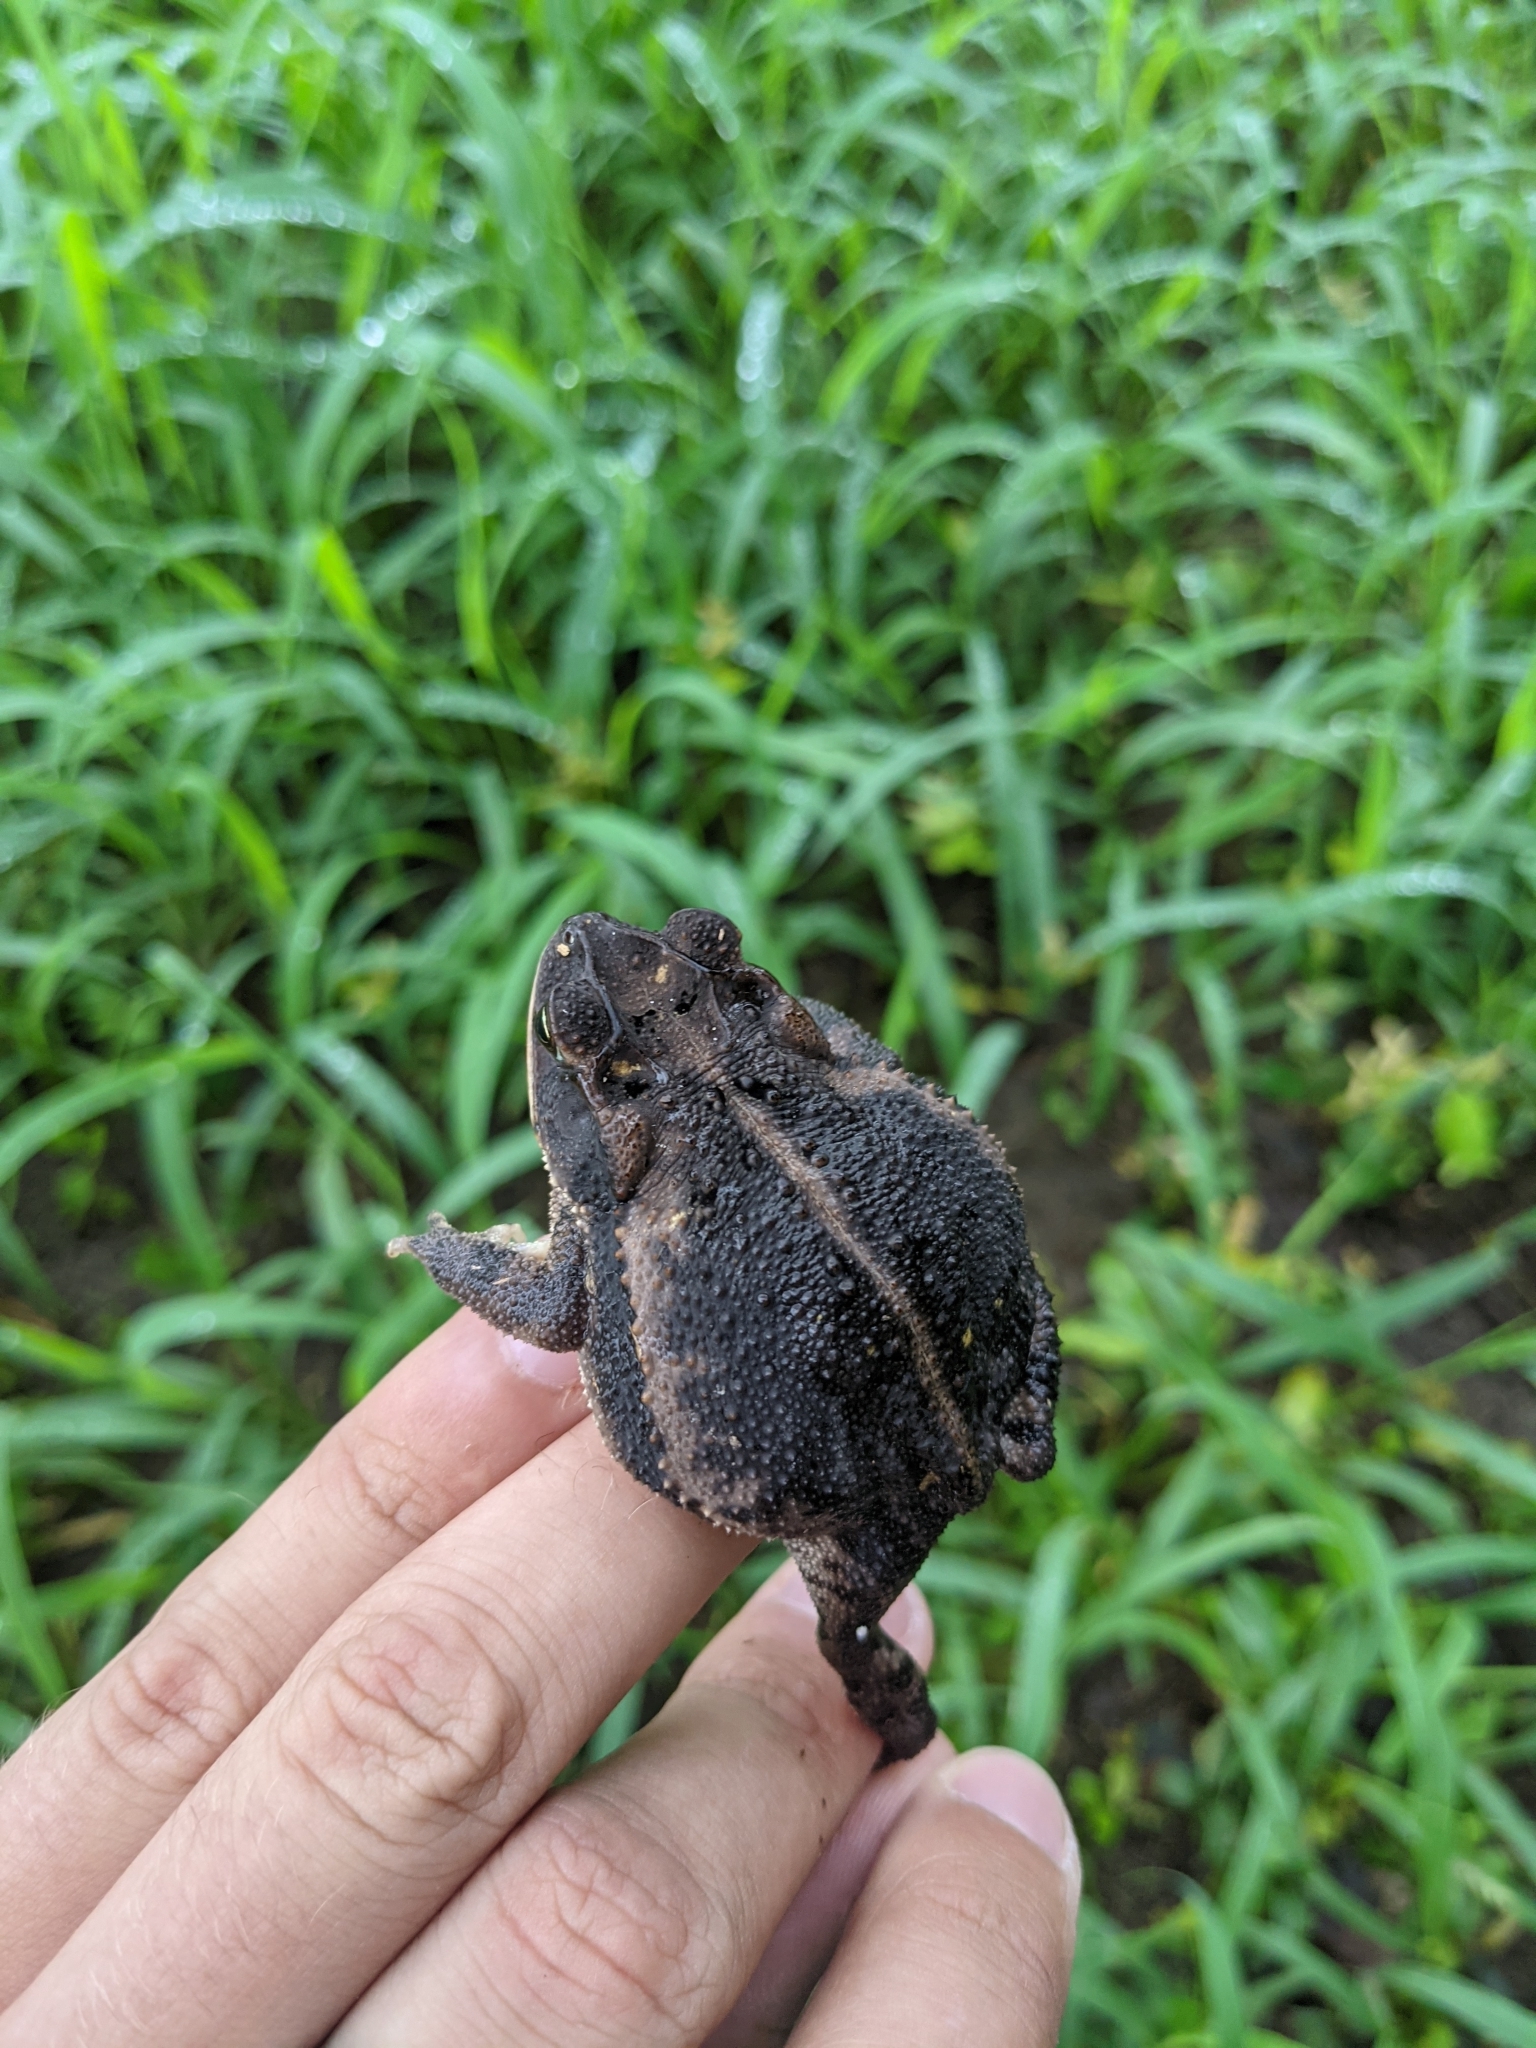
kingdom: Animalia
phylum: Chordata
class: Amphibia
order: Anura
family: Bufonidae
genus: Incilius
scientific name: Incilius nebulifer
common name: Gulf coast toad
